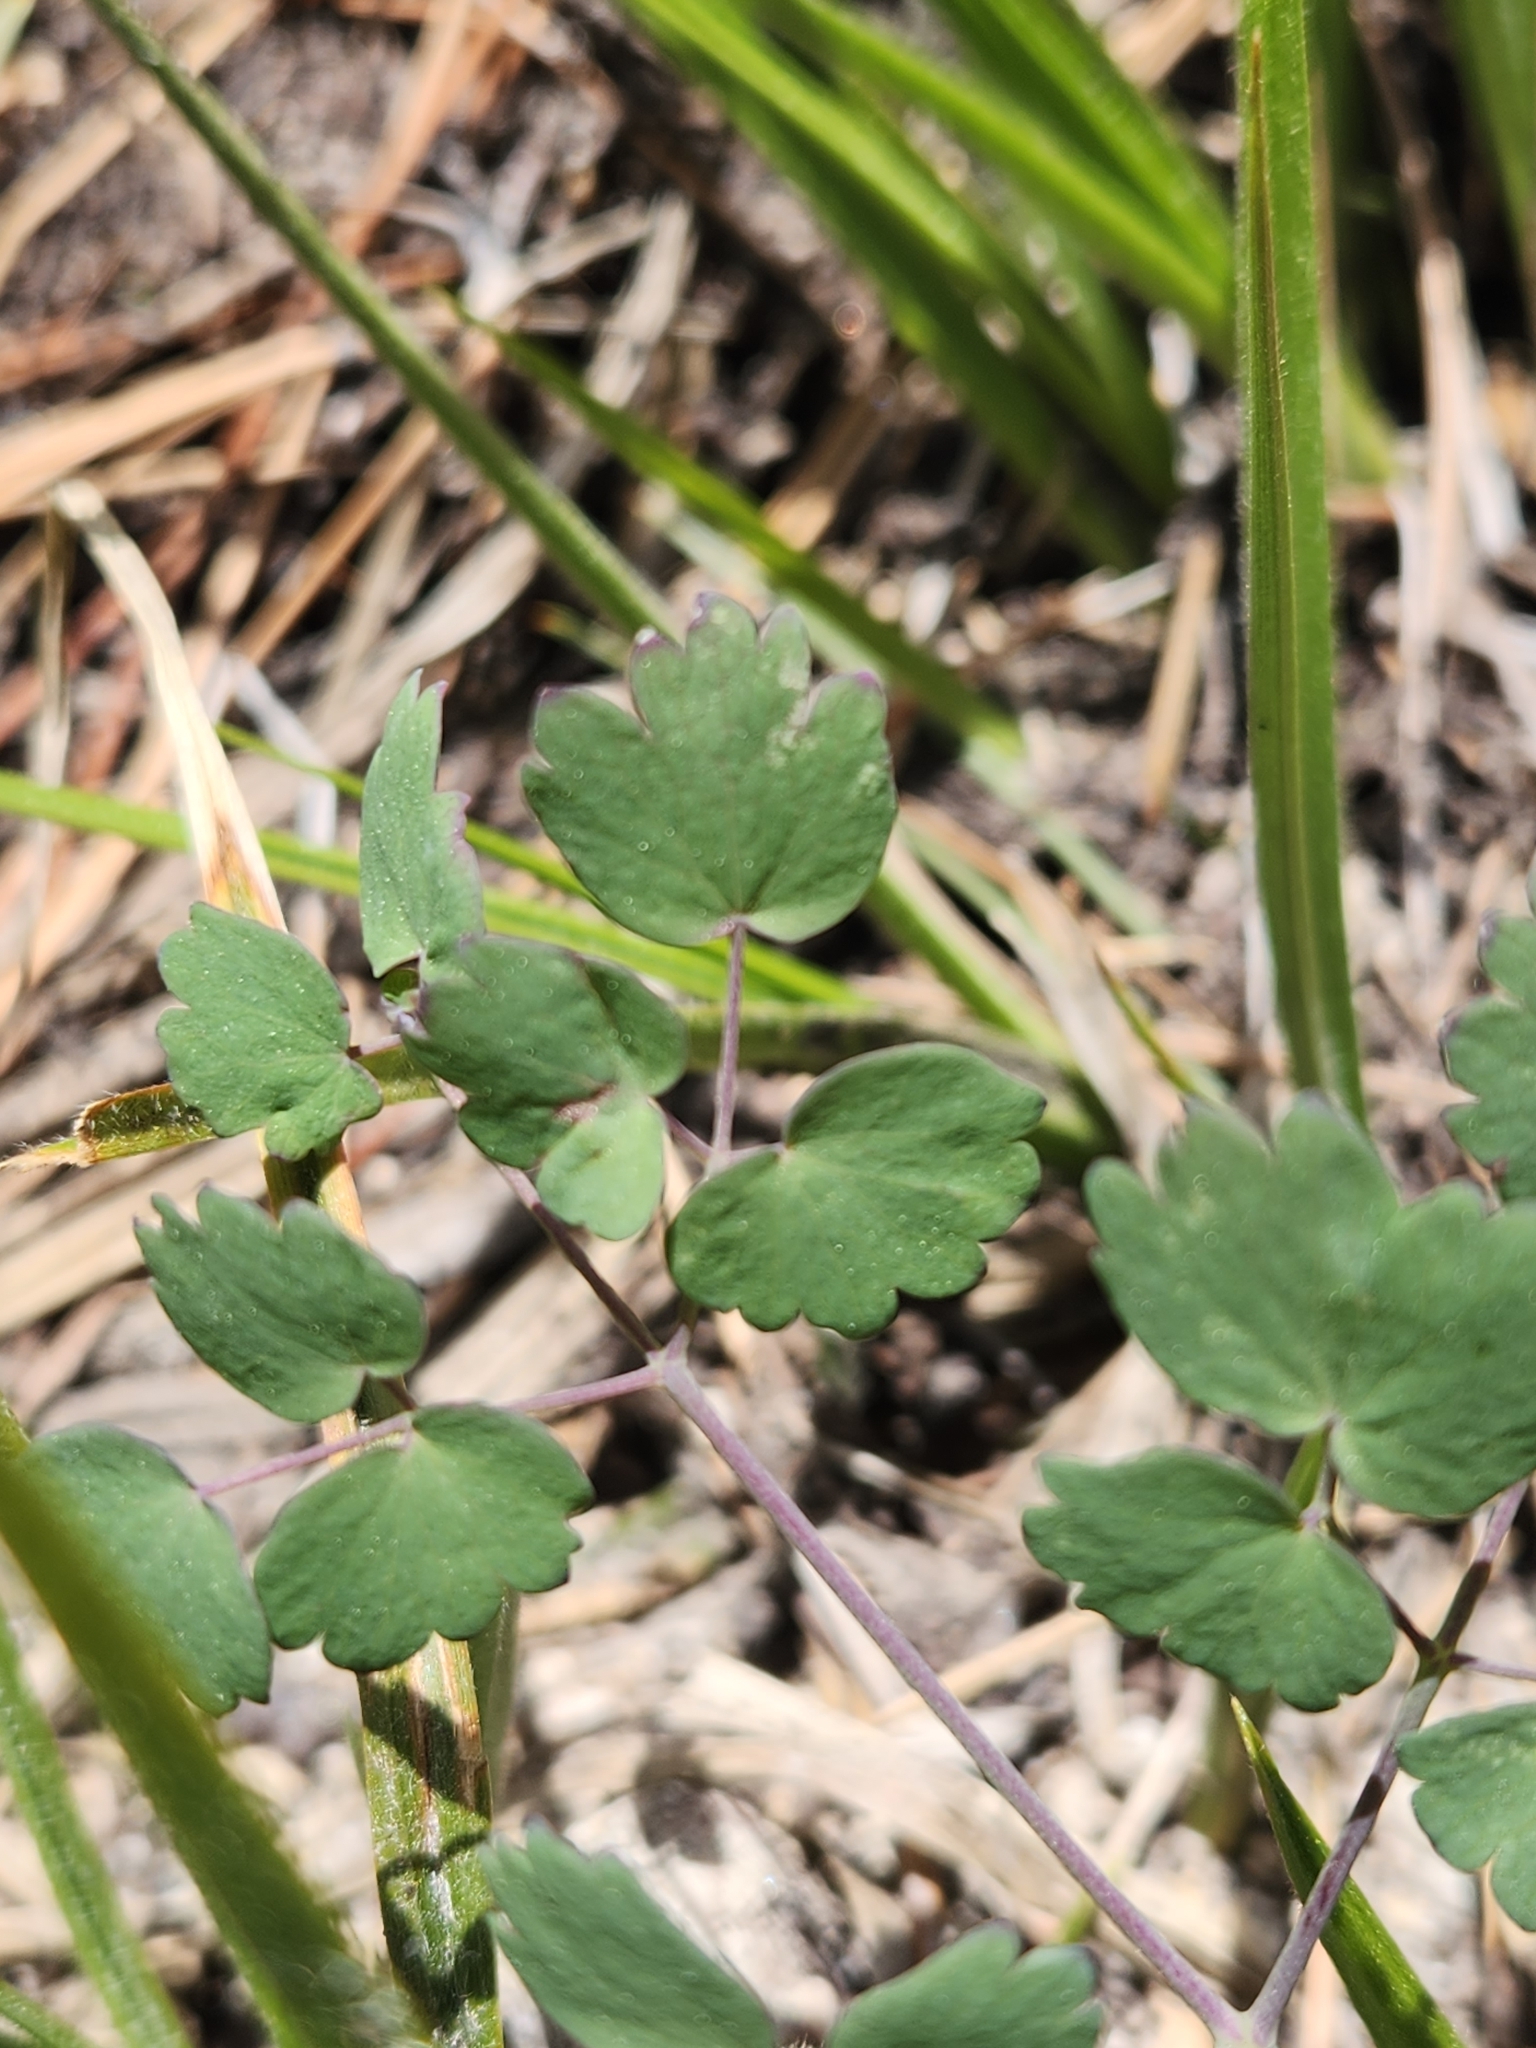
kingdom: Plantae
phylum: Tracheophyta
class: Magnoliopsida
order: Ranunculales
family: Ranunculaceae
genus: Thalictrum
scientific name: Thalictrum fendleri
